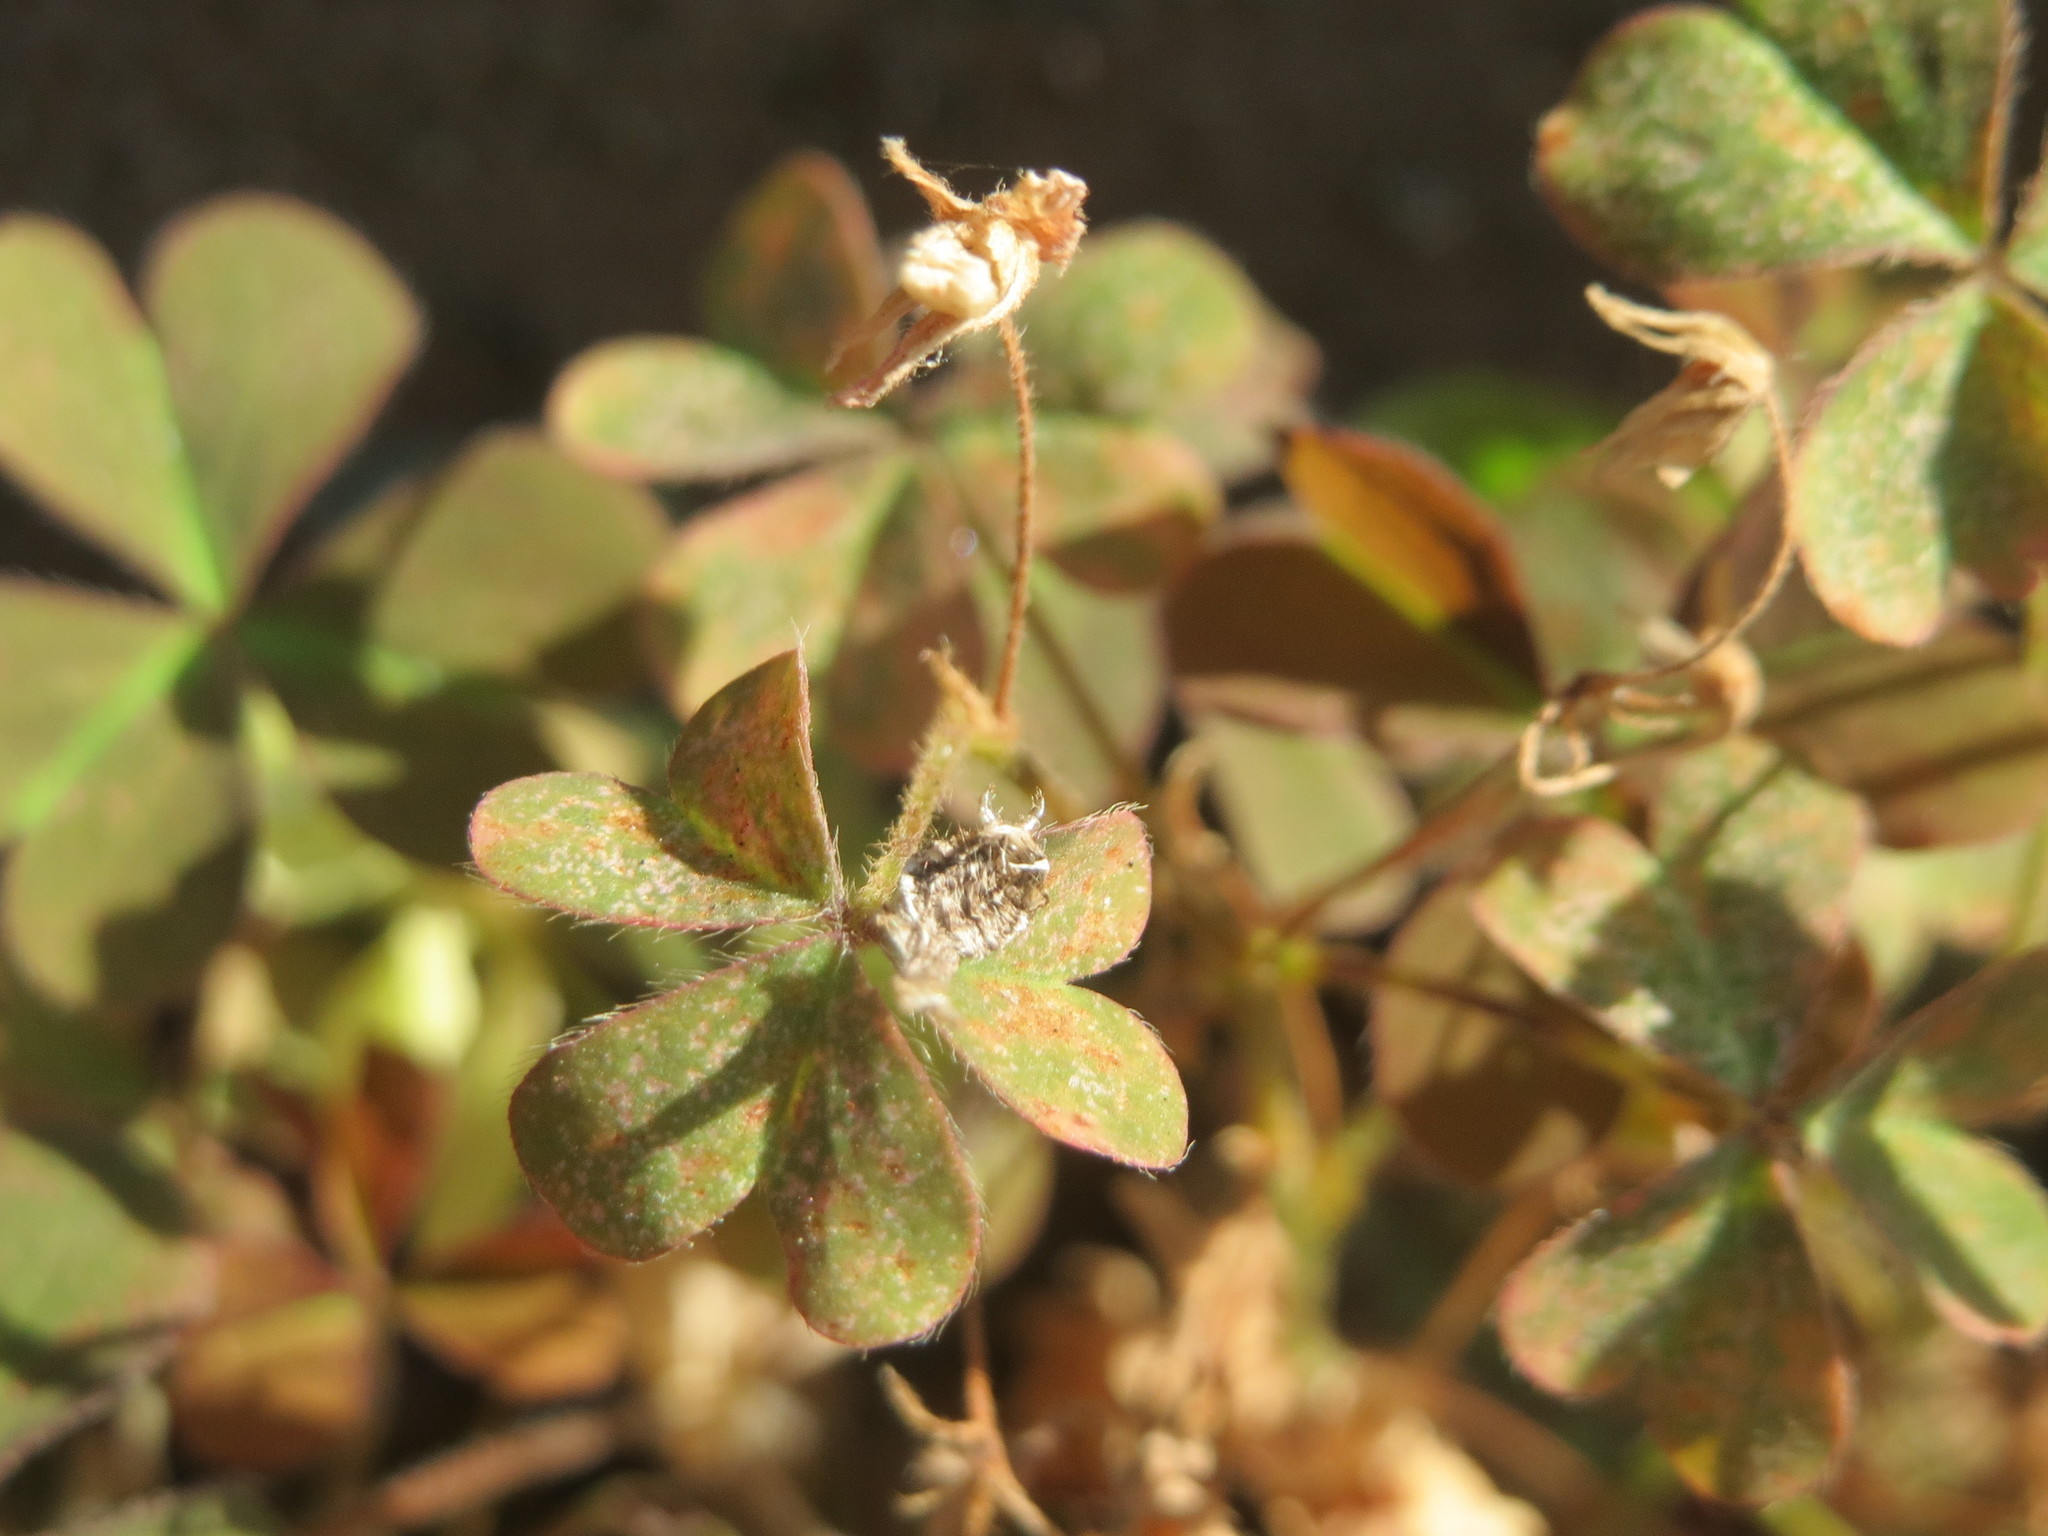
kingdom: Plantae
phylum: Tracheophyta
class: Magnoliopsida
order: Oxalidales
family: Oxalidaceae
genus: Oxalis
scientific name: Oxalis corniculata
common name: Procumbent yellow-sorrel
